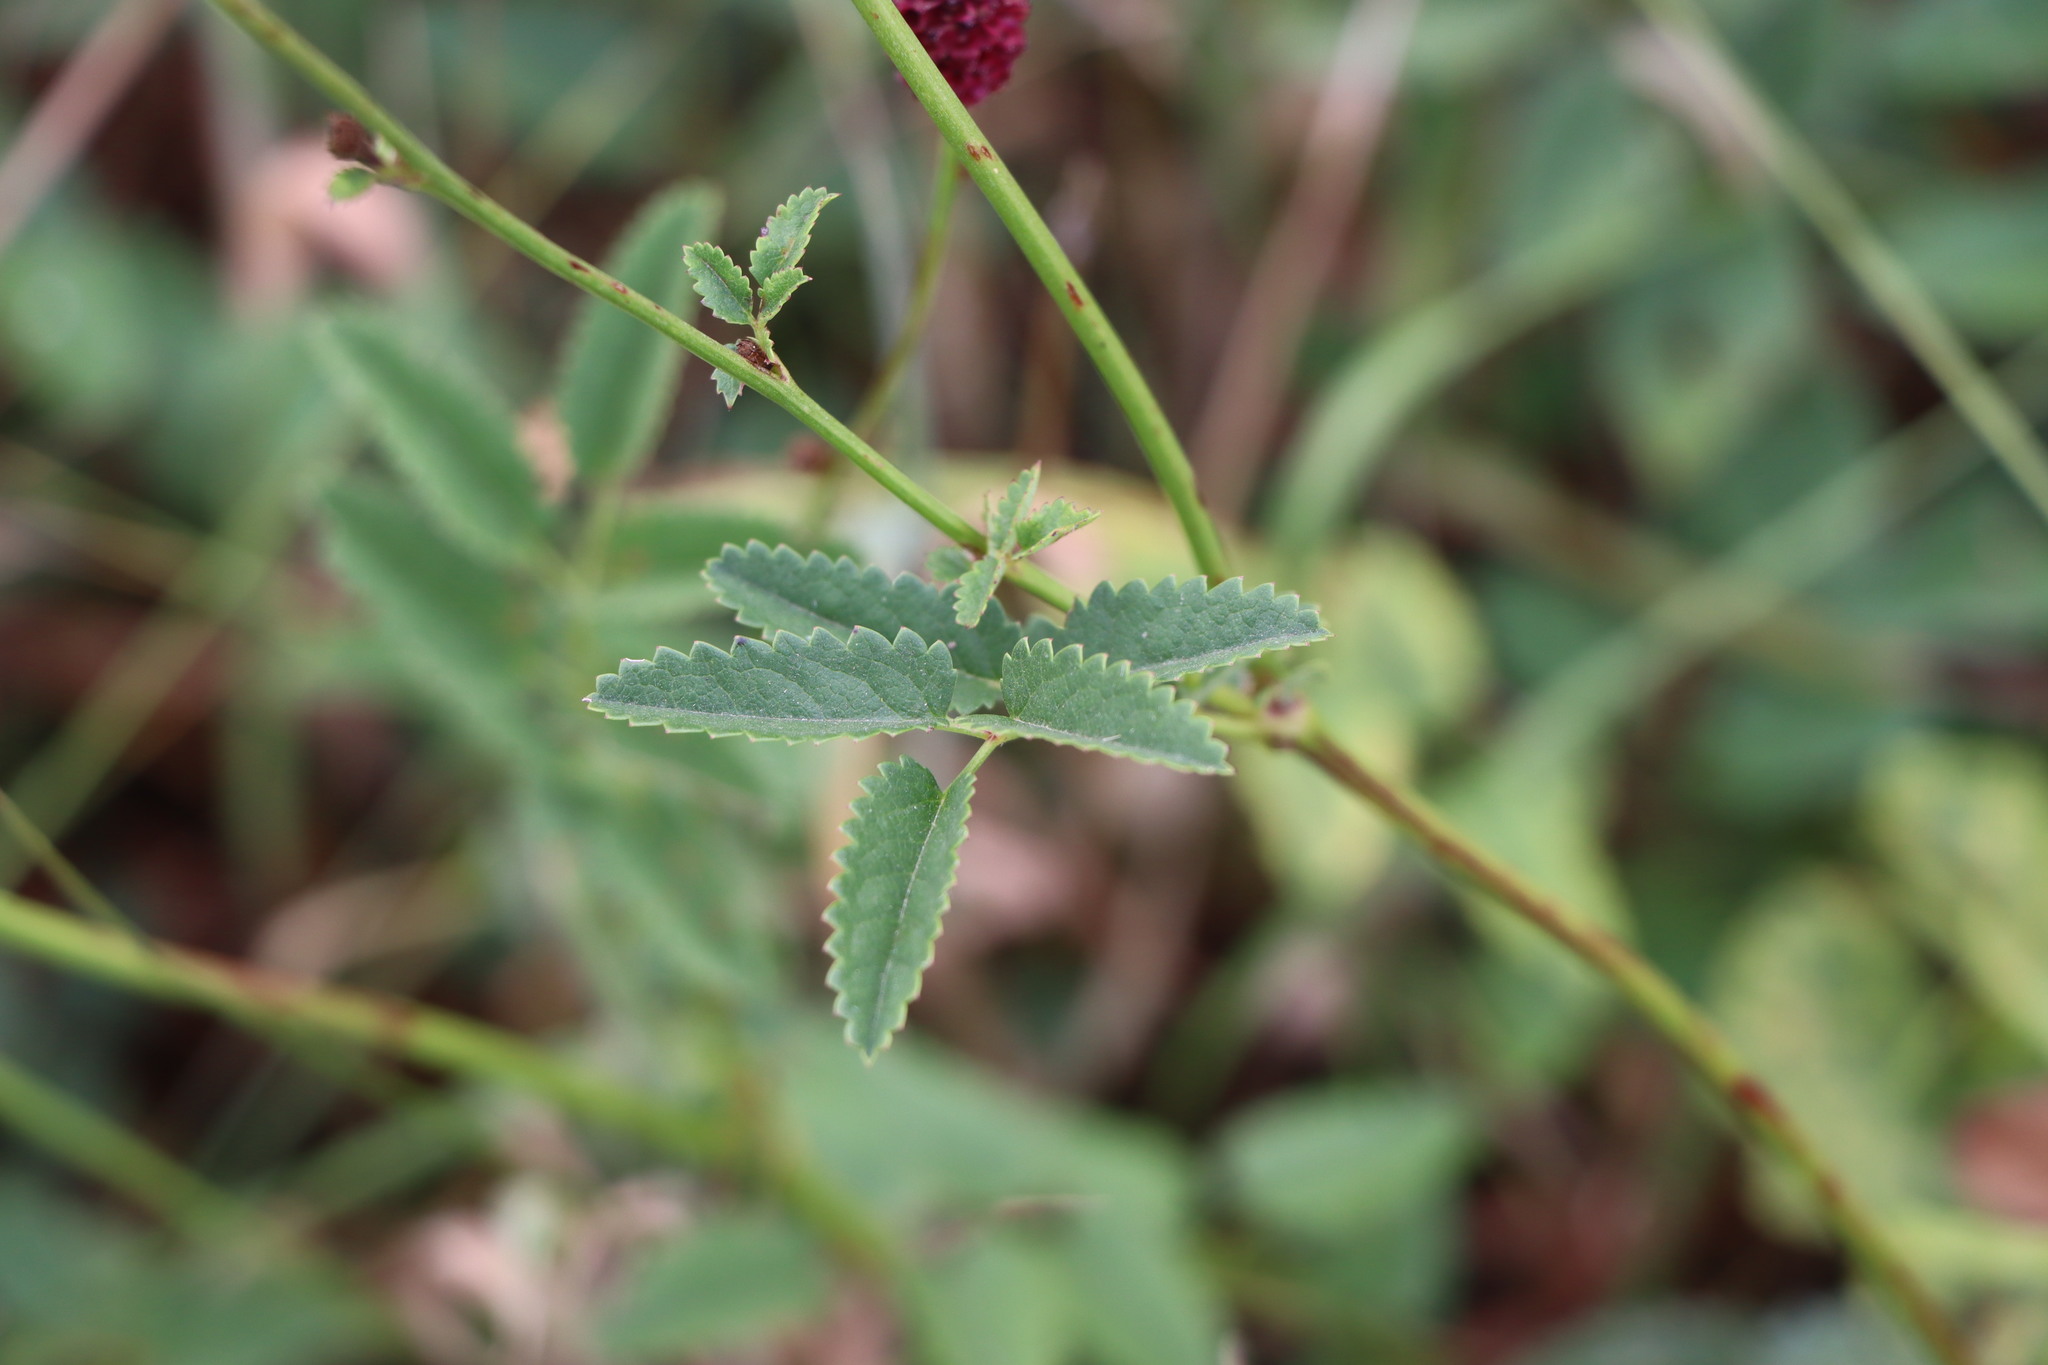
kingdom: Plantae
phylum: Tracheophyta
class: Magnoliopsida
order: Rosales
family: Rosaceae
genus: Sanguisorba
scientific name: Sanguisorba officinalis
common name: Great burnet
